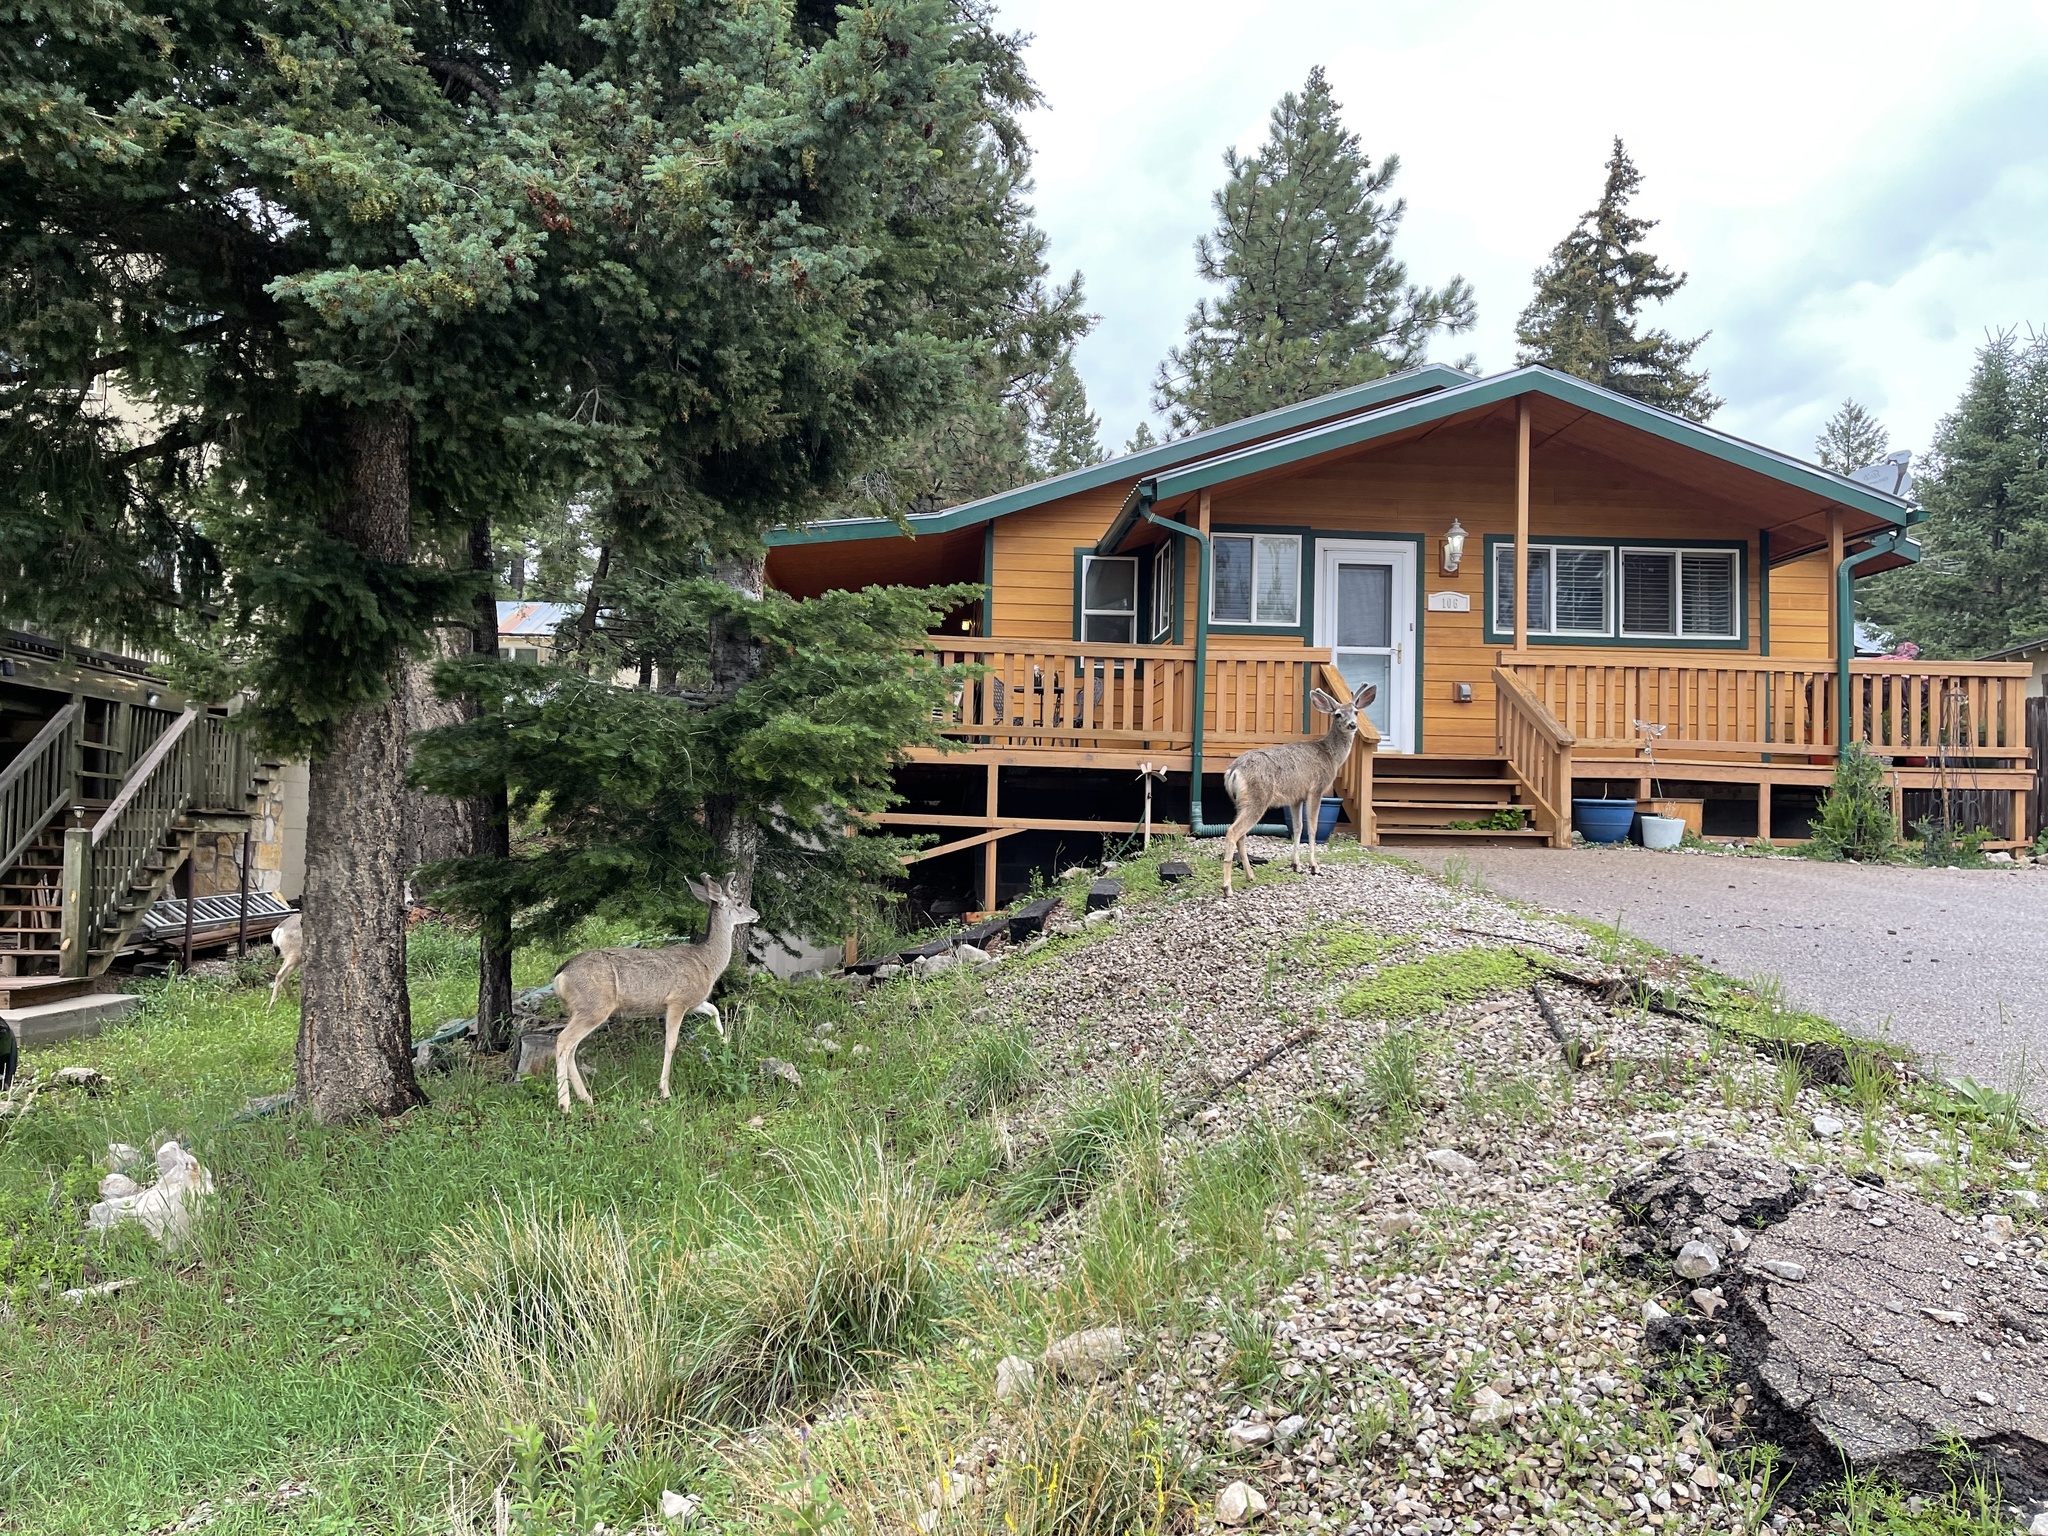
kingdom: Animalia
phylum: Chordata
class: Mammalia
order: Artiodactyla
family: Cervidae
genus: Odocoileus
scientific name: Odocoileus hemionus
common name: Mule deer
